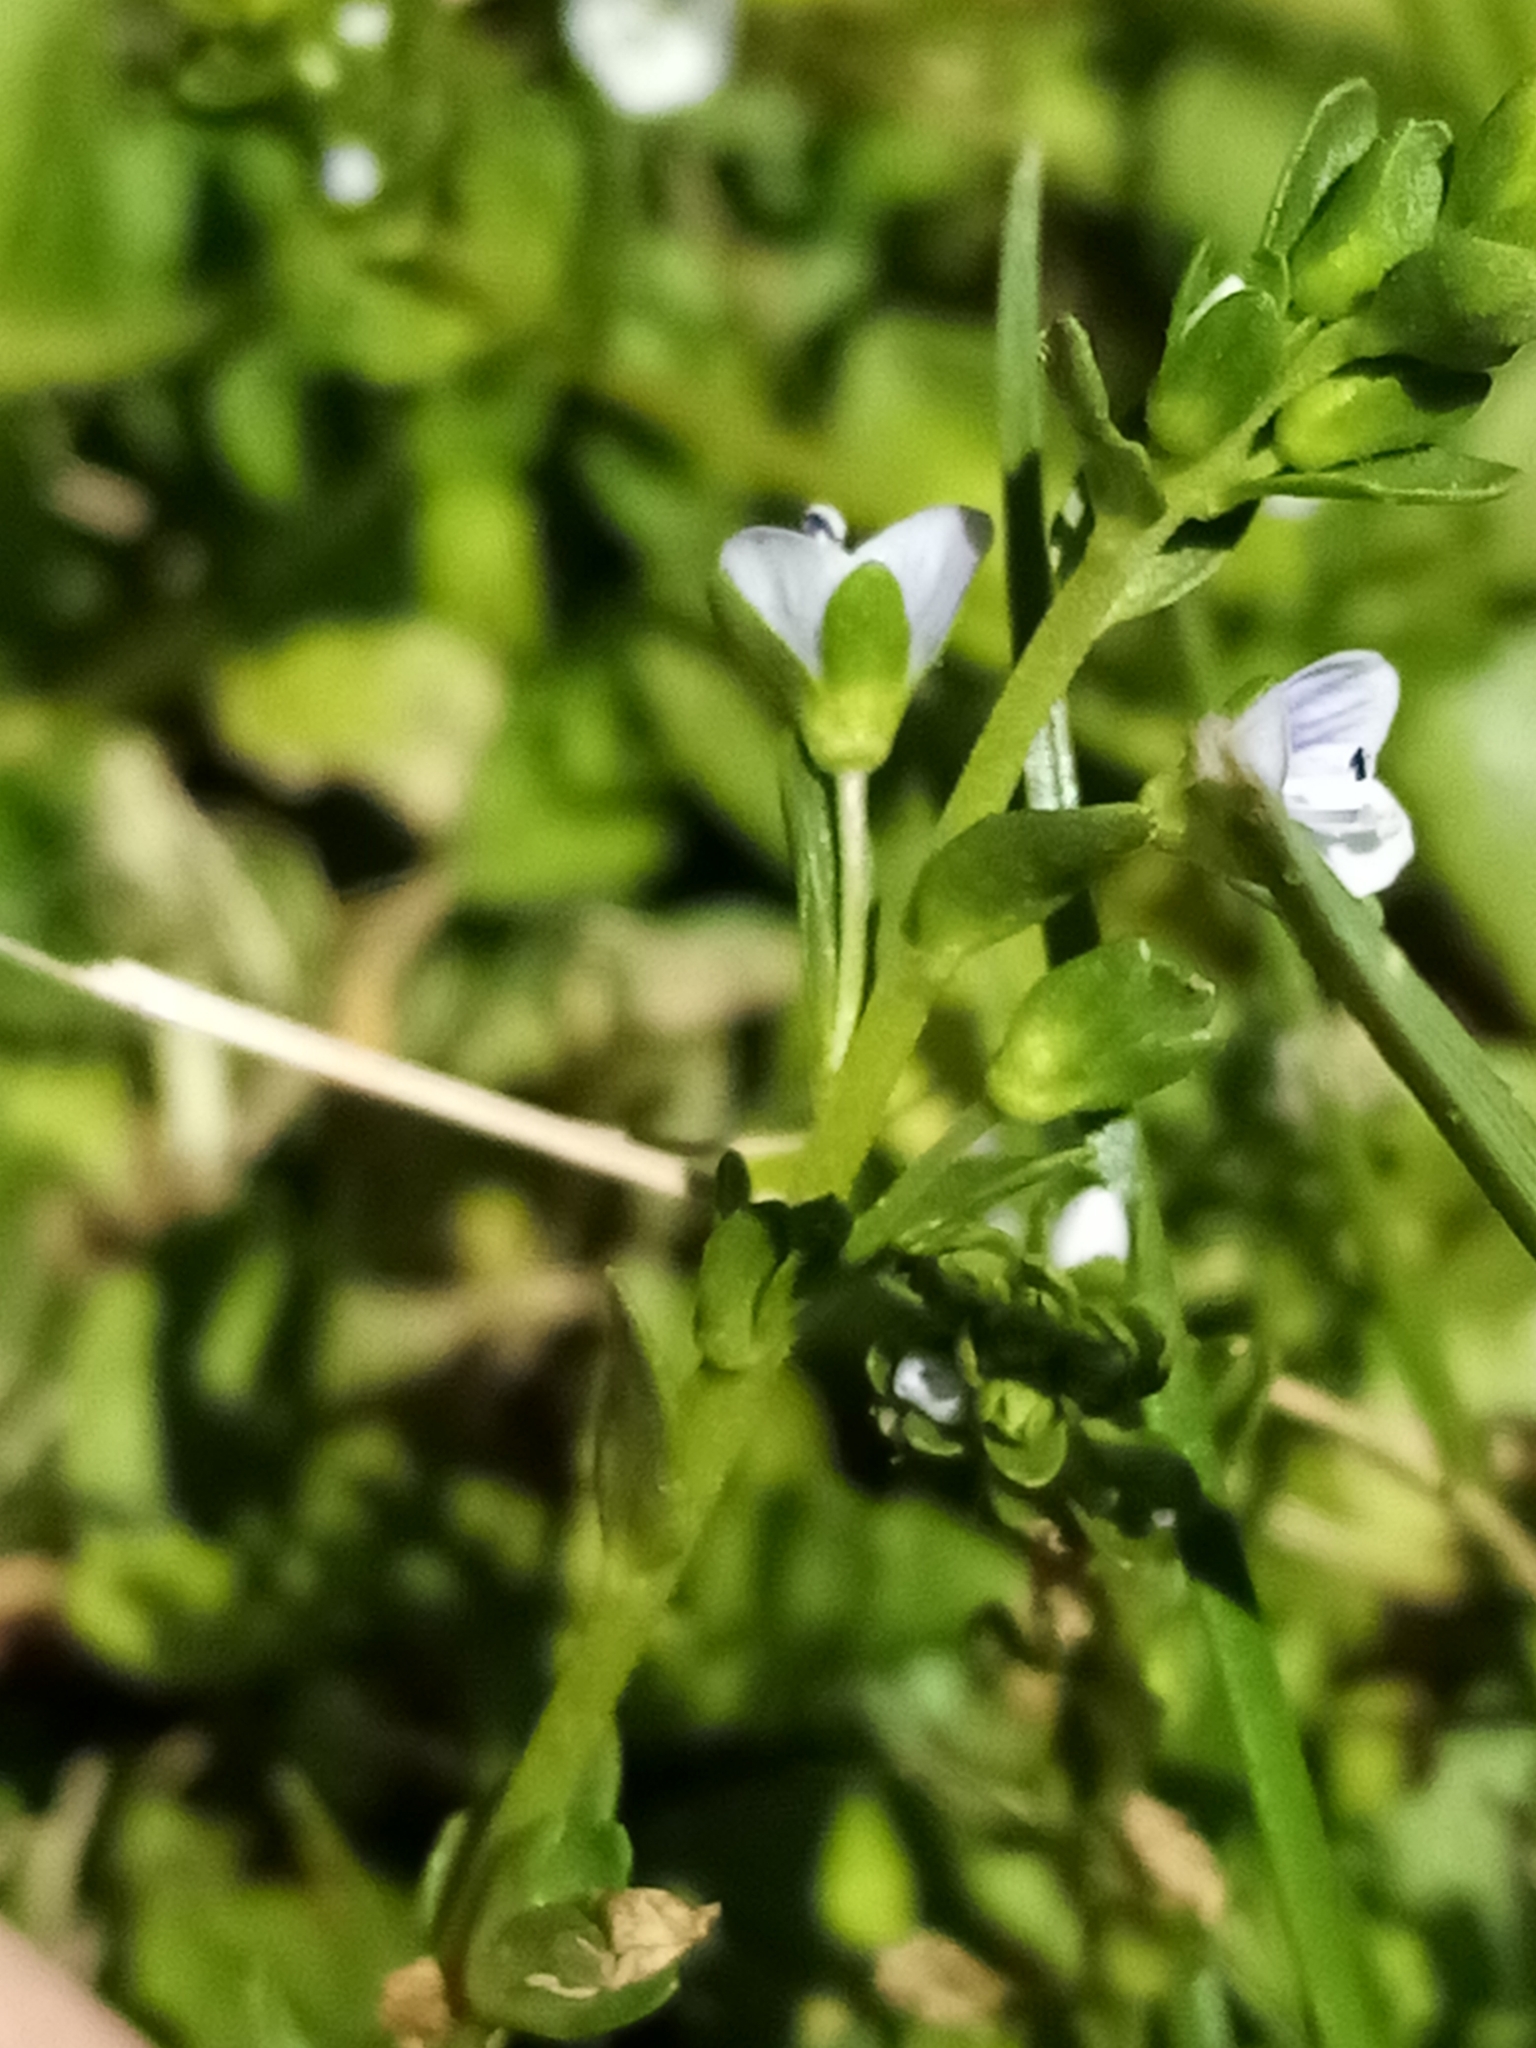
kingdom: Plantae
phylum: Tracheophyta
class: Magnoliopsida
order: Lamiales
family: Plantaginaceae
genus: Veronica
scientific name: Veronica serpyllifolia
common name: Thyme-leaved speedwell
